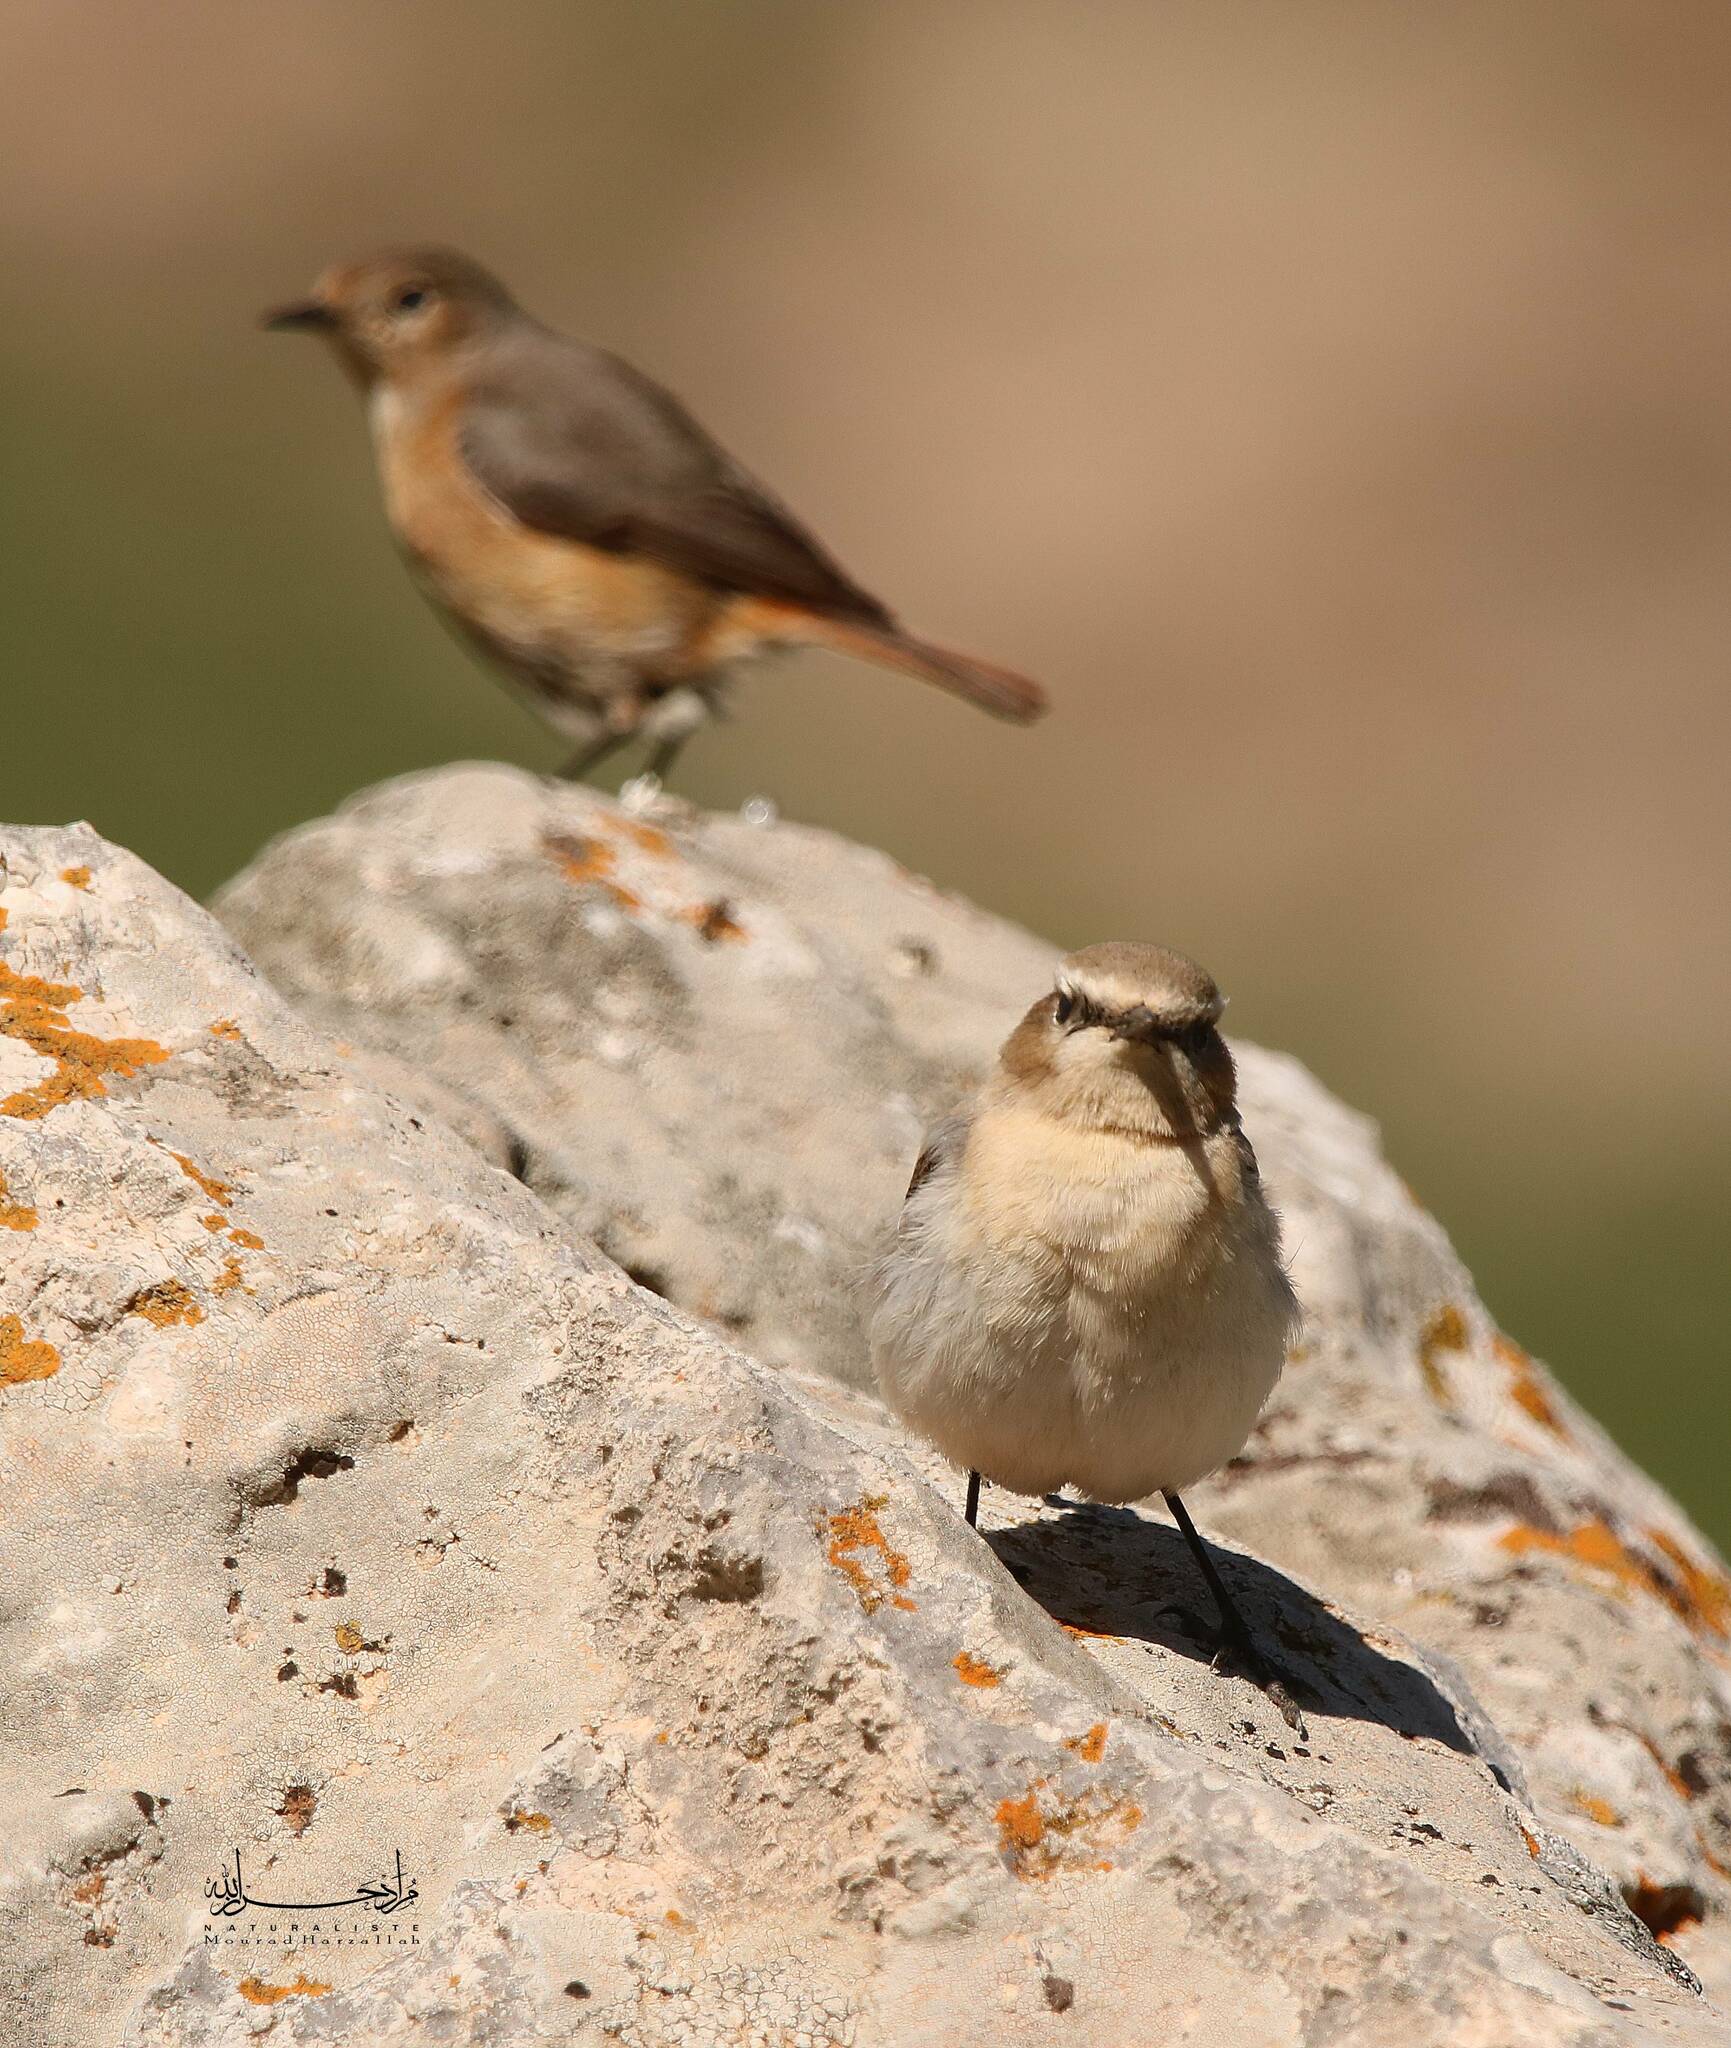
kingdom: Animalia
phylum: Chordata
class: Aves
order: Passeriformes
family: Muscicapidae
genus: Oenanthe
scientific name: Oenanthe oenanthe
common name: Northern wheatear
